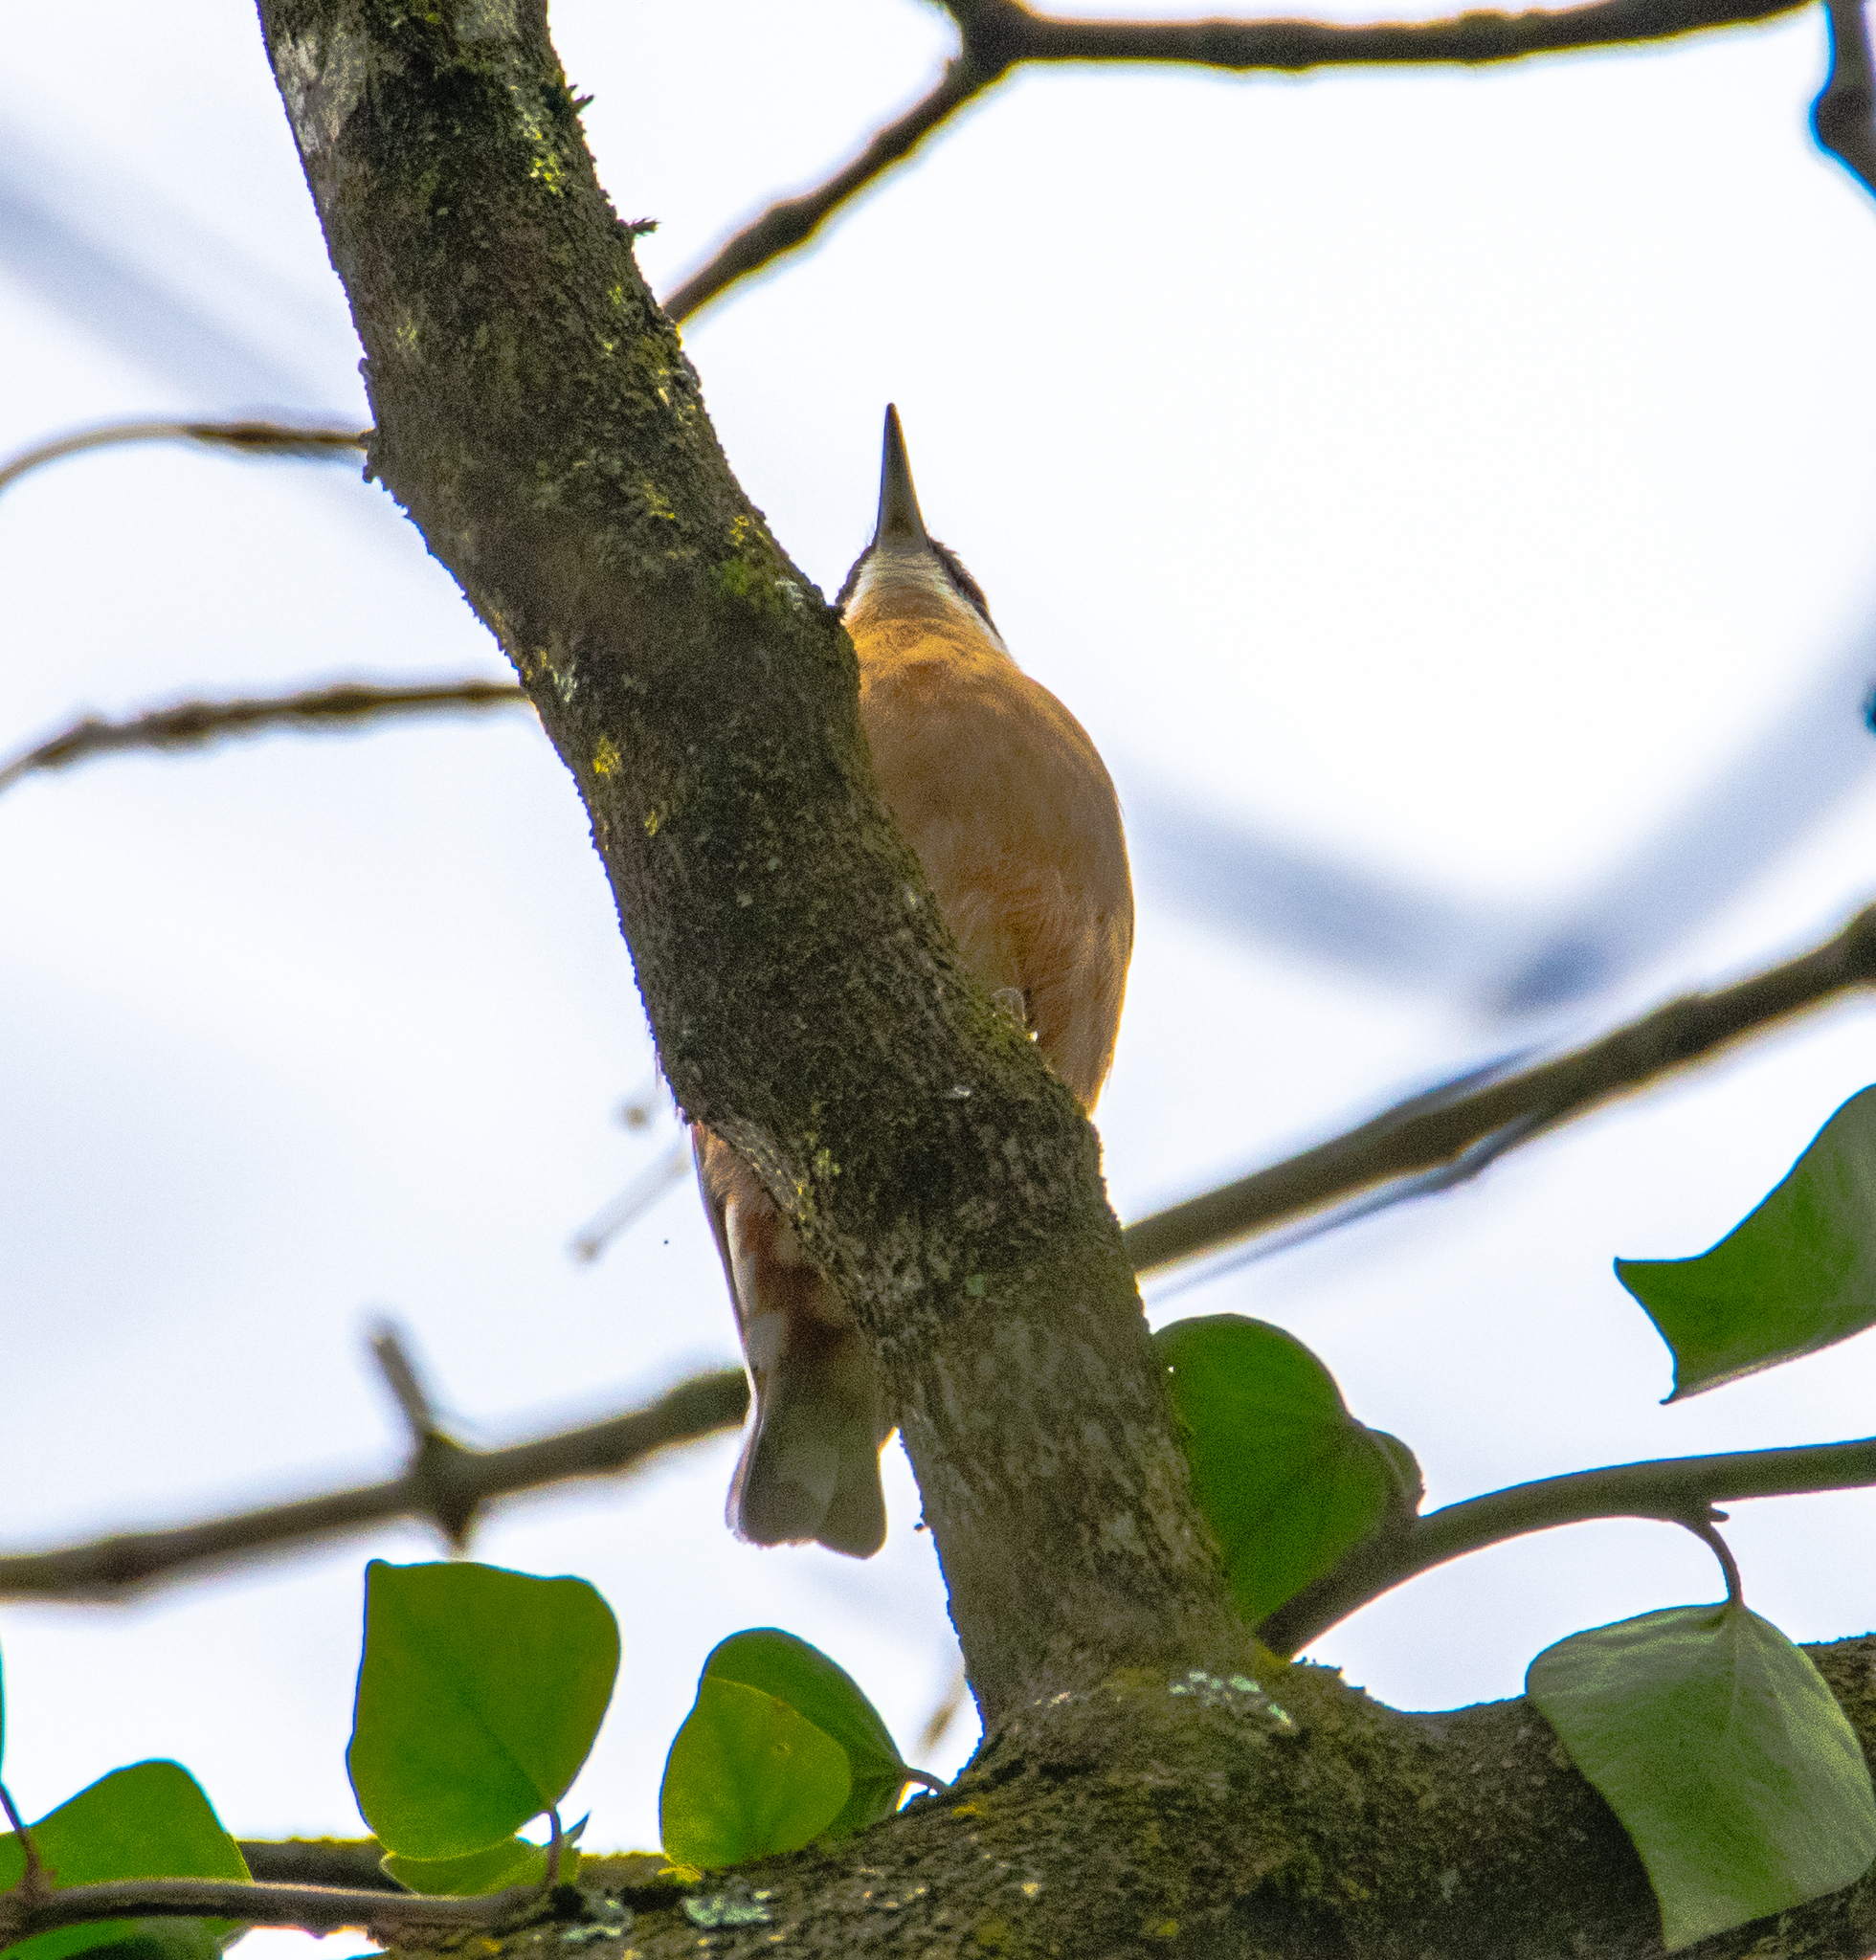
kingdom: Animalia
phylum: Chordata
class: Aves
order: Passeriformes
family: Sittidae
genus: Sitta
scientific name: Sitta europaea
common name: Eurasian nuthatch
